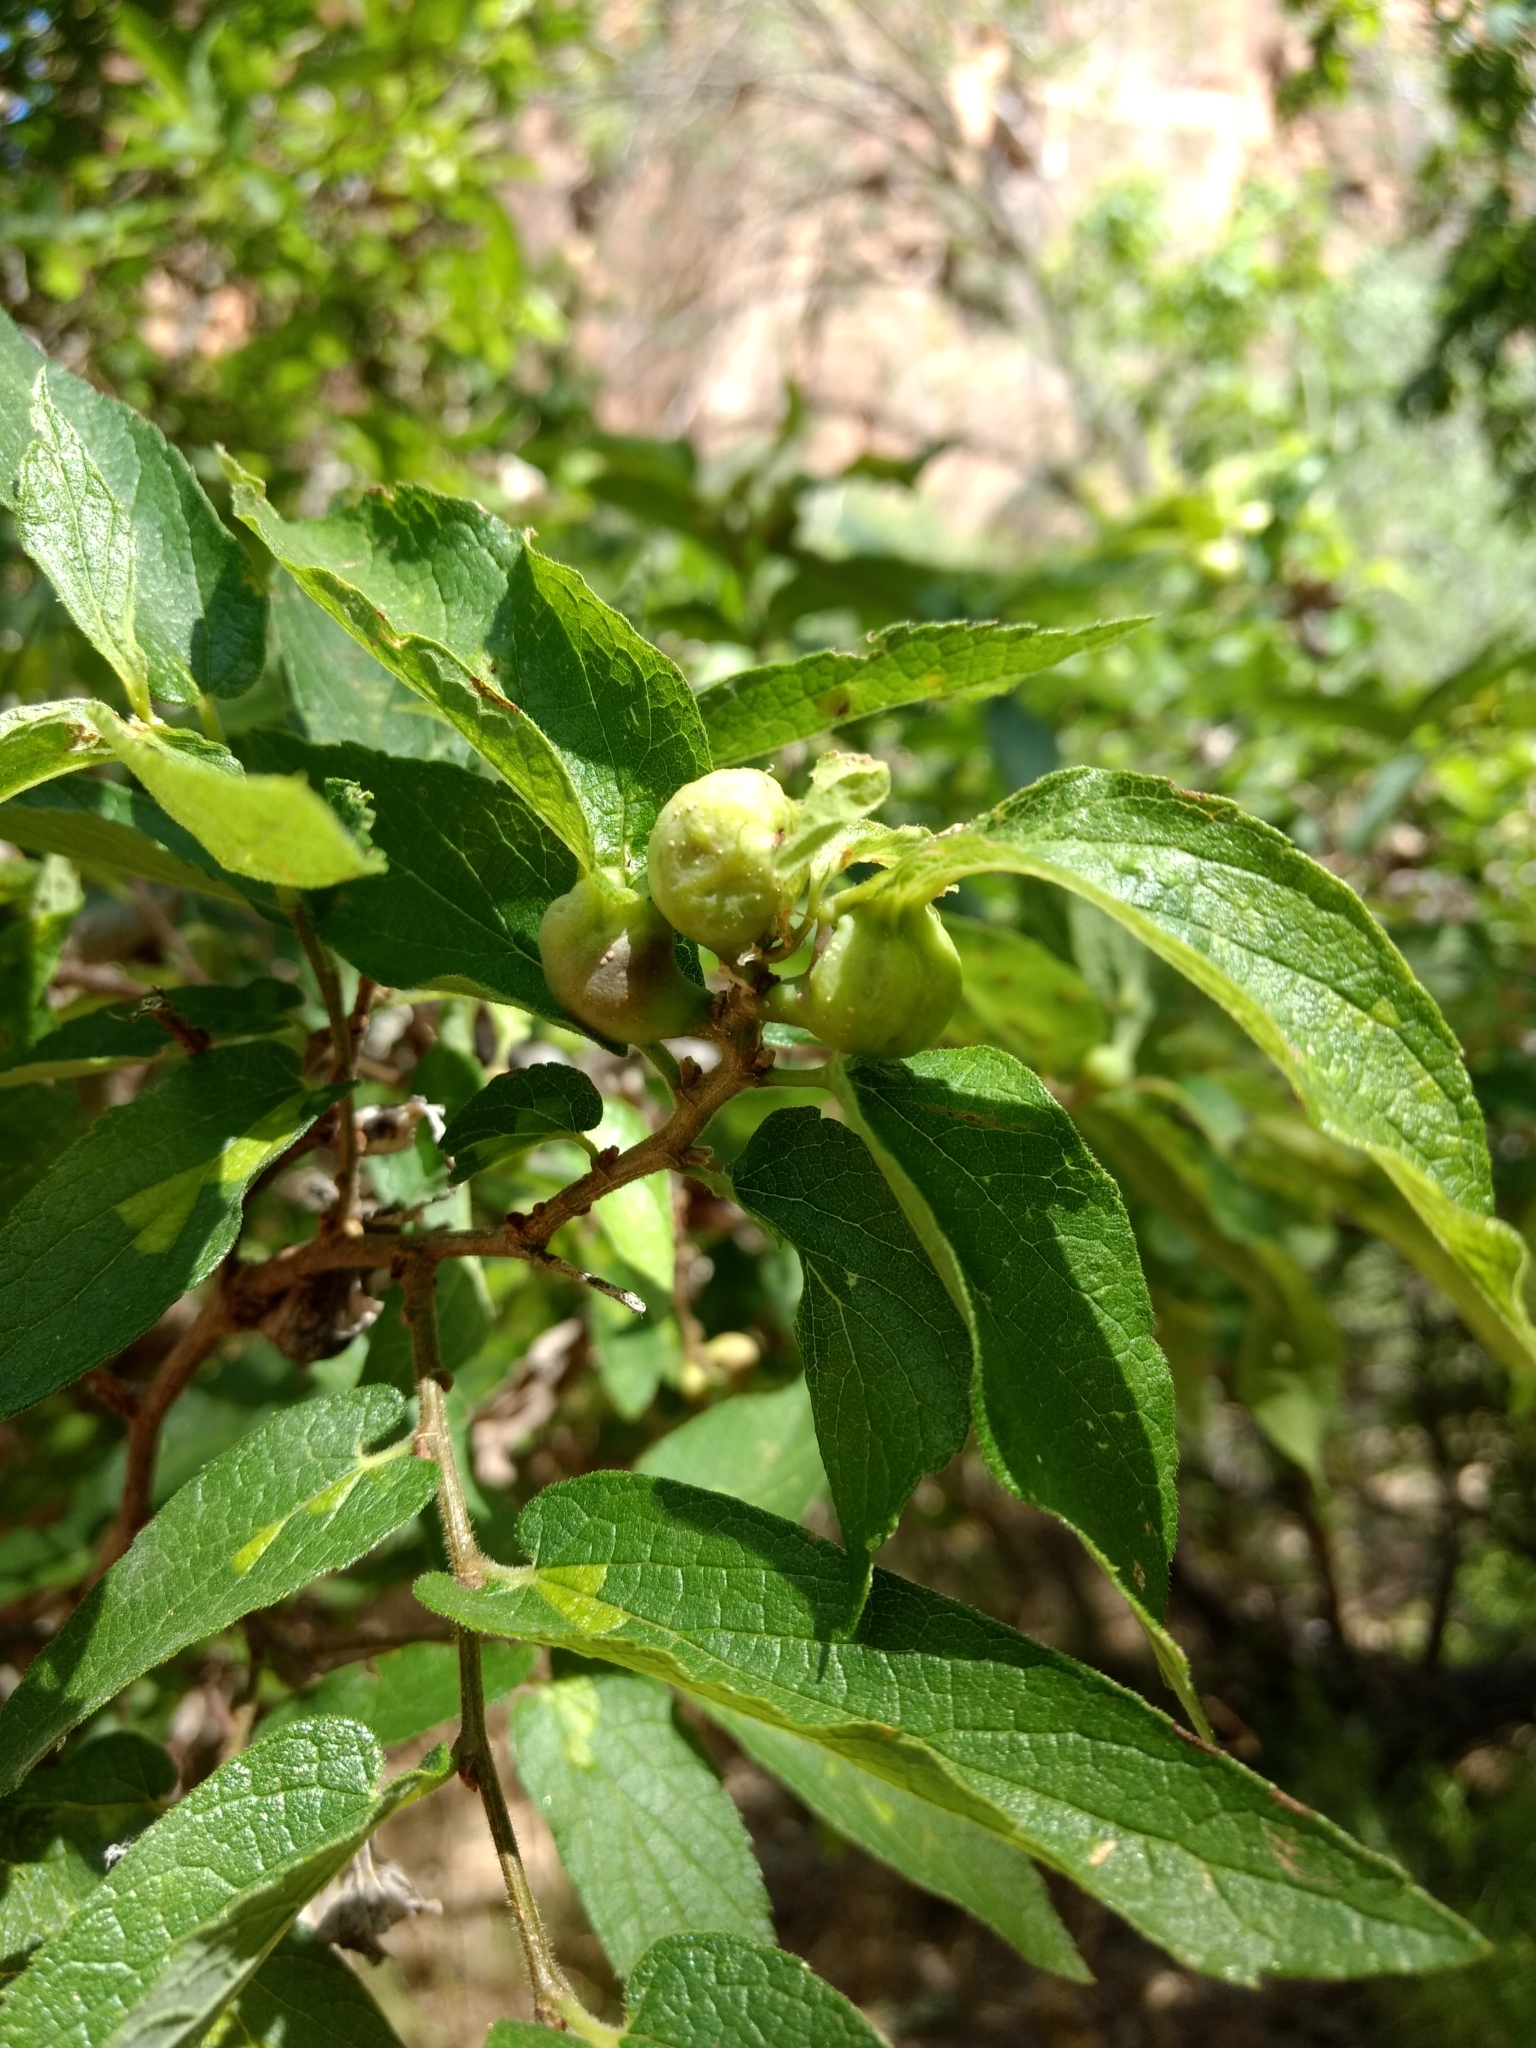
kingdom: Animalia
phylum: Arthropoda
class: Insecta
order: Hemiptera
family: Aphalaridae
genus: Pachypsylla
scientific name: Pachypsylla venusta
